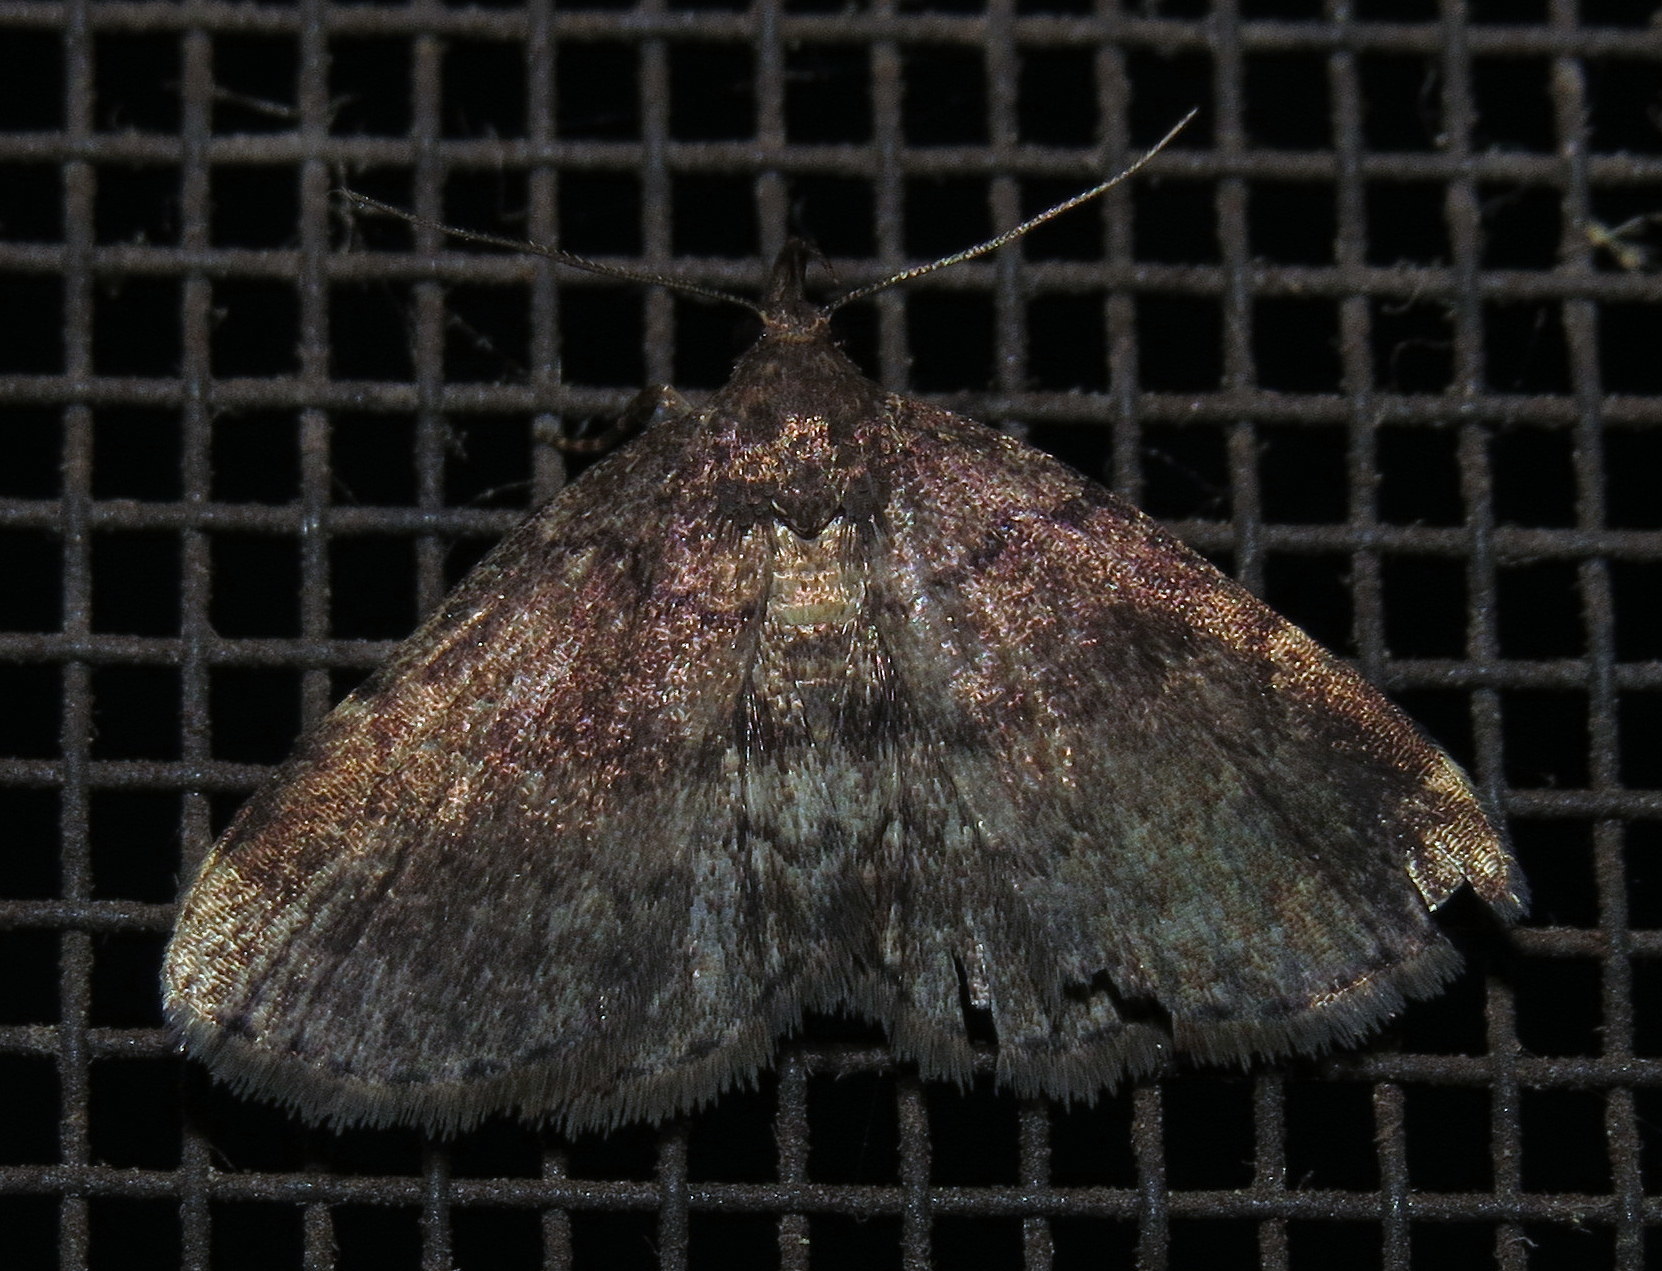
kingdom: Animalia
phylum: Arthropoda
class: Insecta
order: Lepidoptera
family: Erebidae
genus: Idia
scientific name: Idia forbesii
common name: Forbes' idia moth
